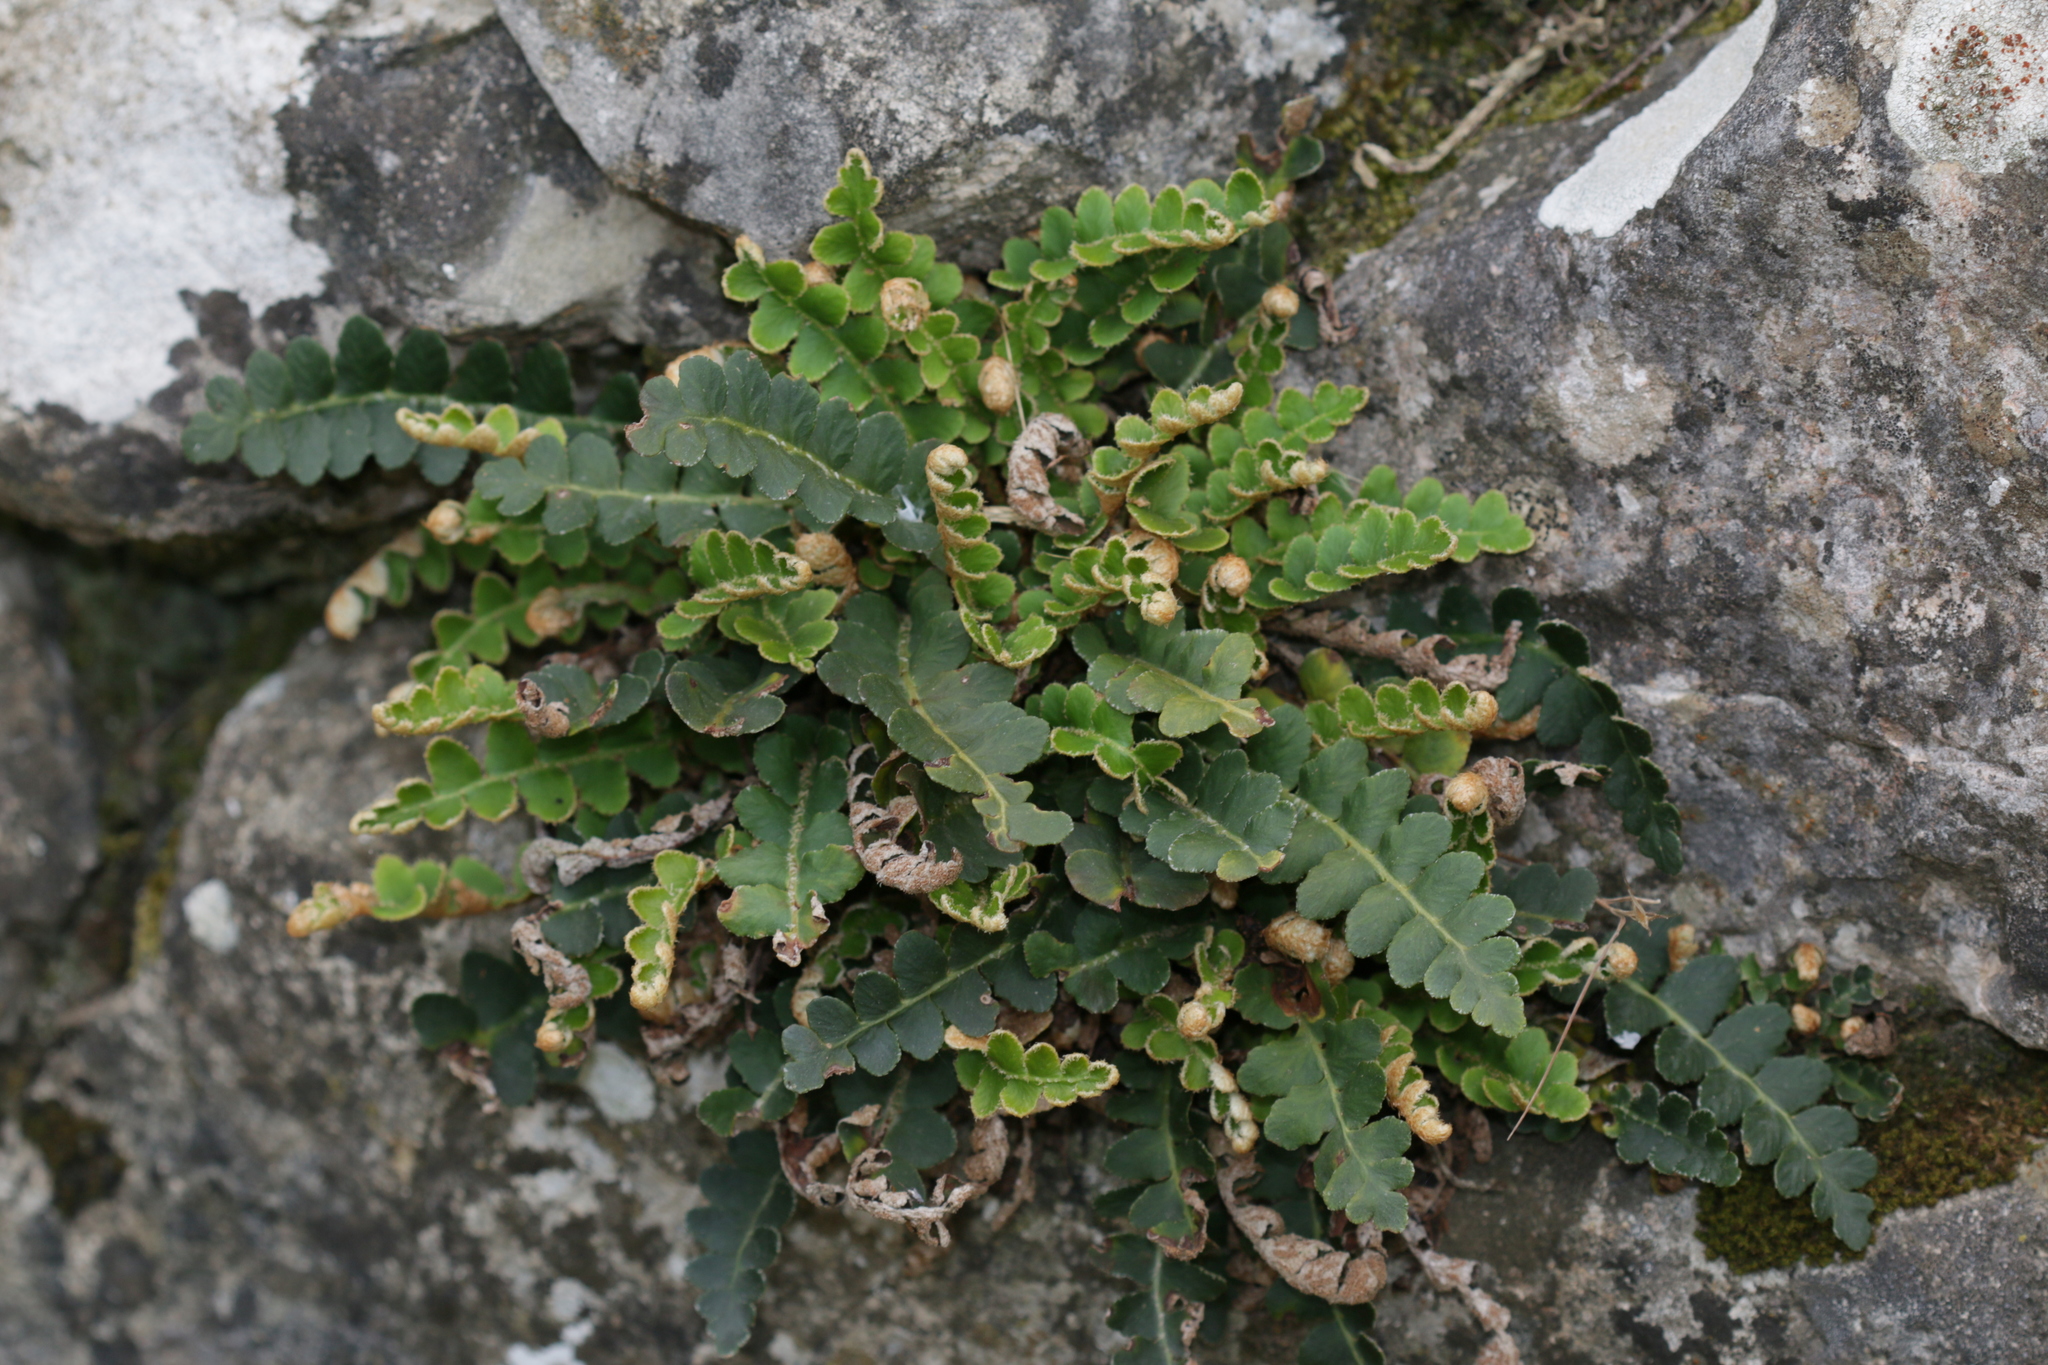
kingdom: Plantae
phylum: Tracheophyta
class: Polypodiopsida
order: Polypodiales
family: Aspleniaceae
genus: Asplenium
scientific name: Asplenium ceterach
